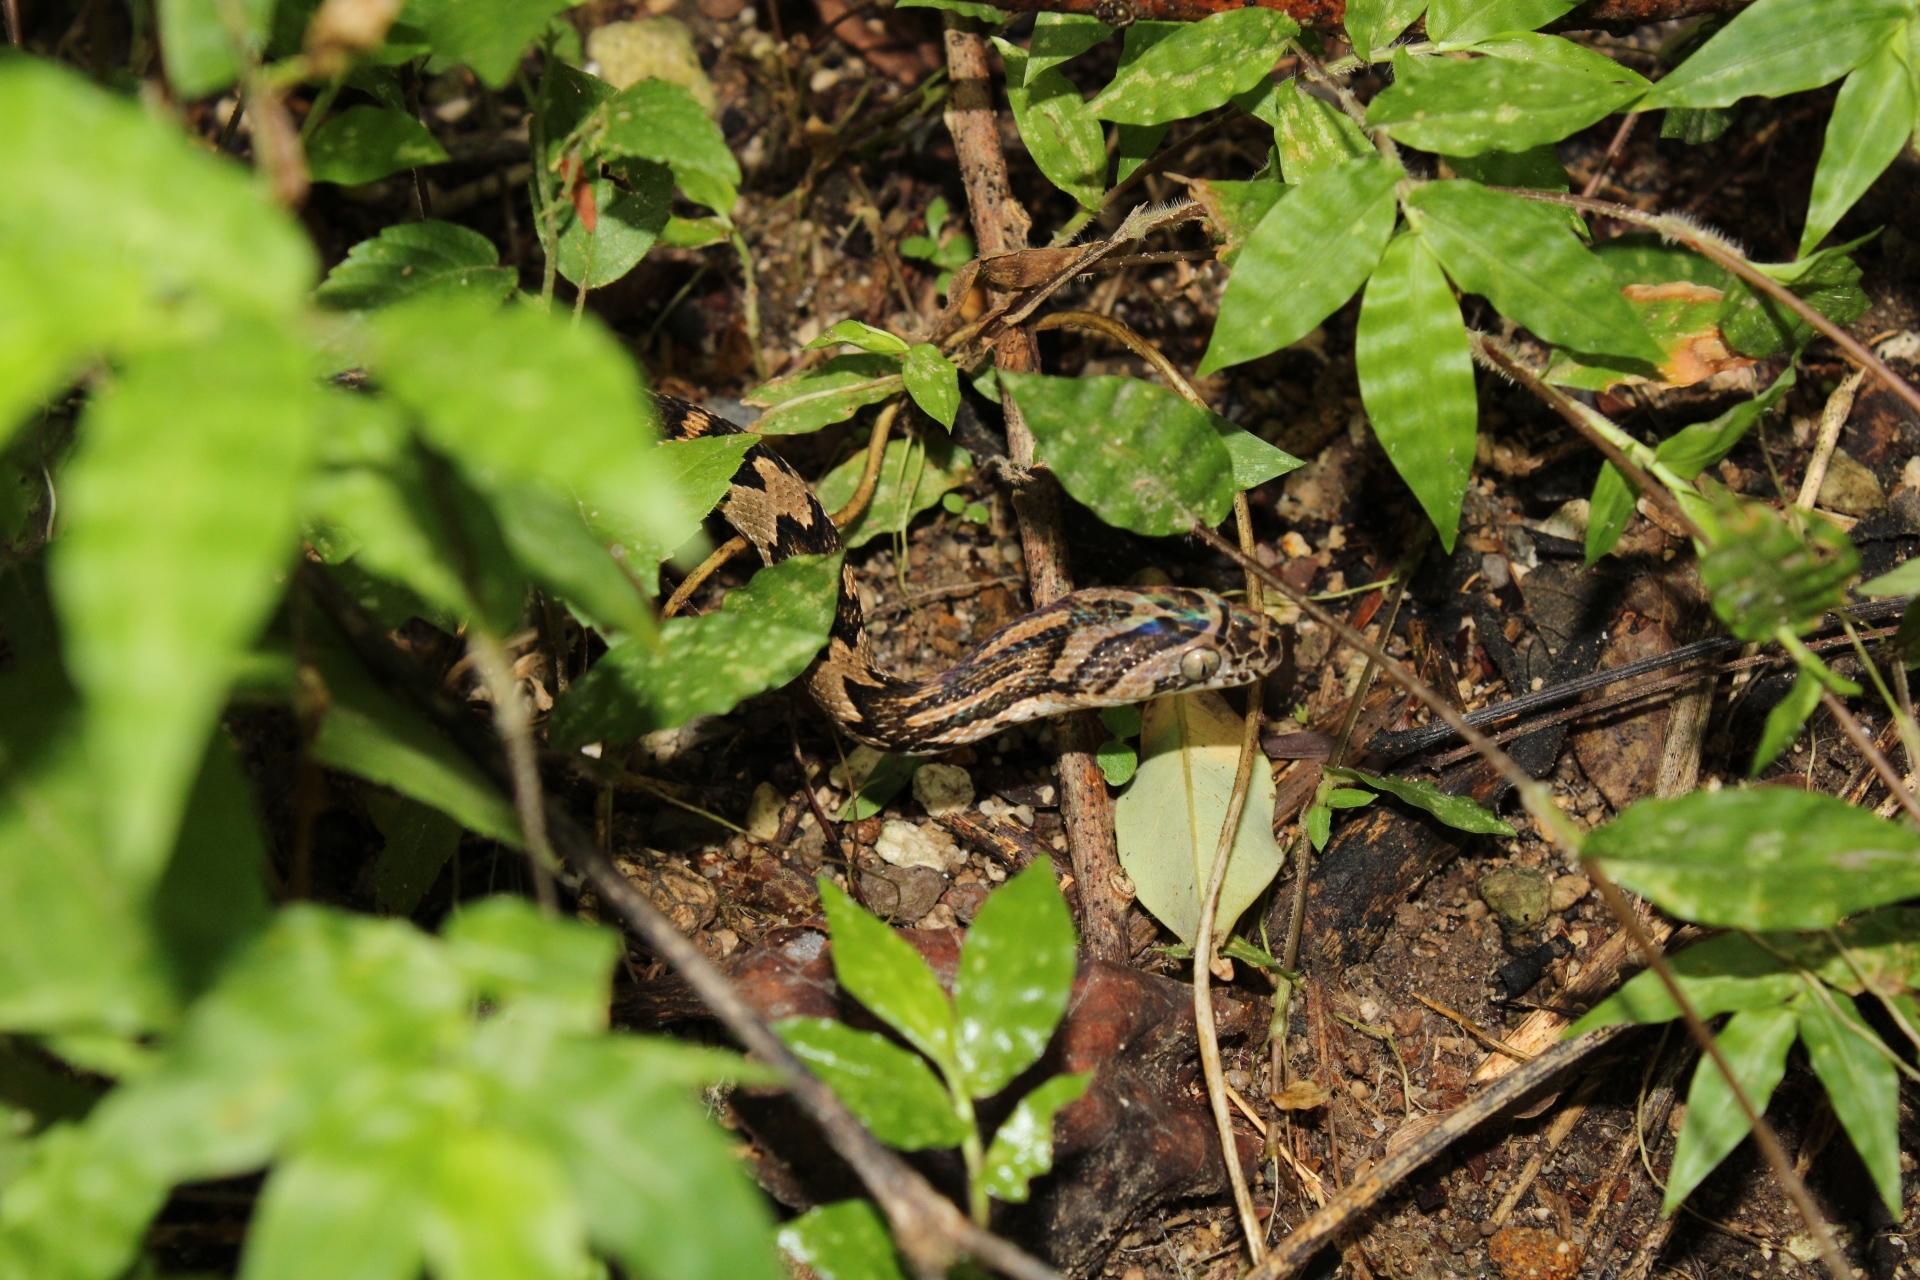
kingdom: Animalia
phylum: Chordata
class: Squamata
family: Colubridae
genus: Trimorphodon
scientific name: Trimorphodon quadruplex
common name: Central american lyre snake
